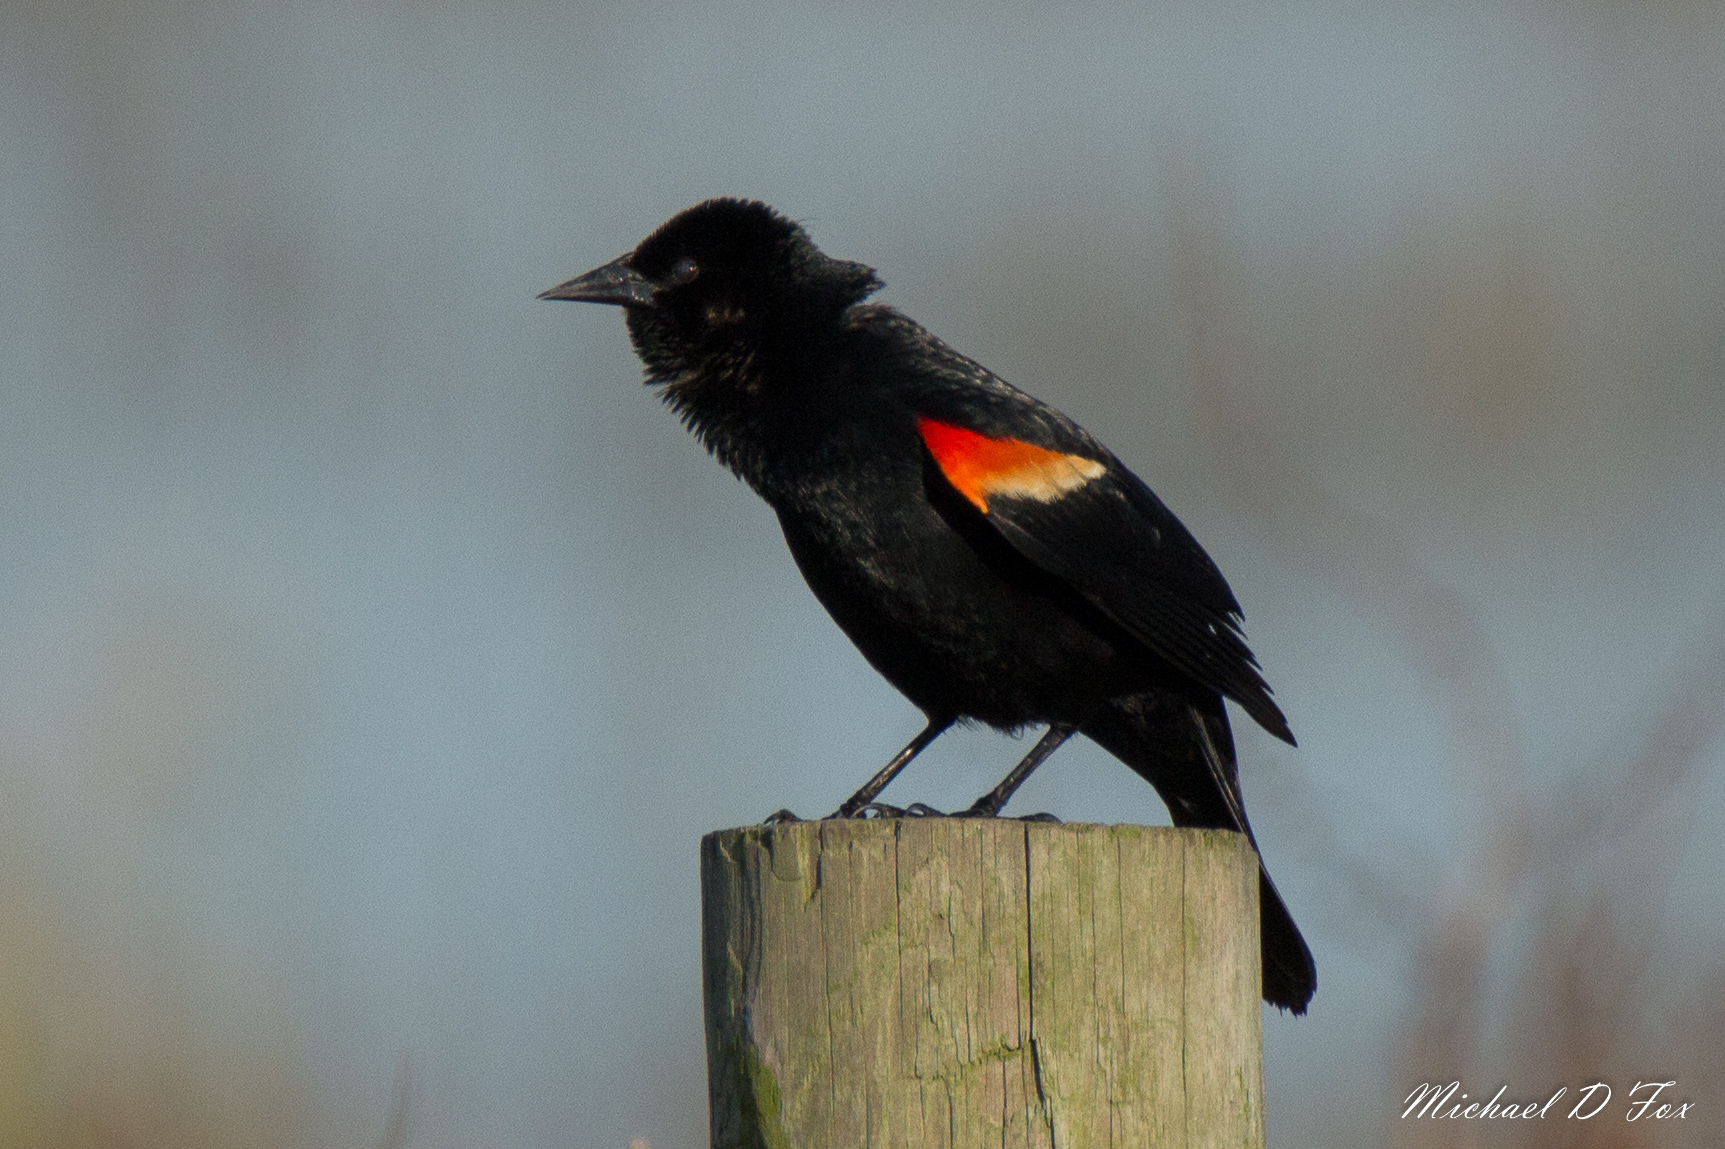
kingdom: Animalia
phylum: Chordata
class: Aves
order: Passeriformes
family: Icteridae
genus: Agelaius
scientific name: Agelaius phoeniceus
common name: Red-winged blackbird
